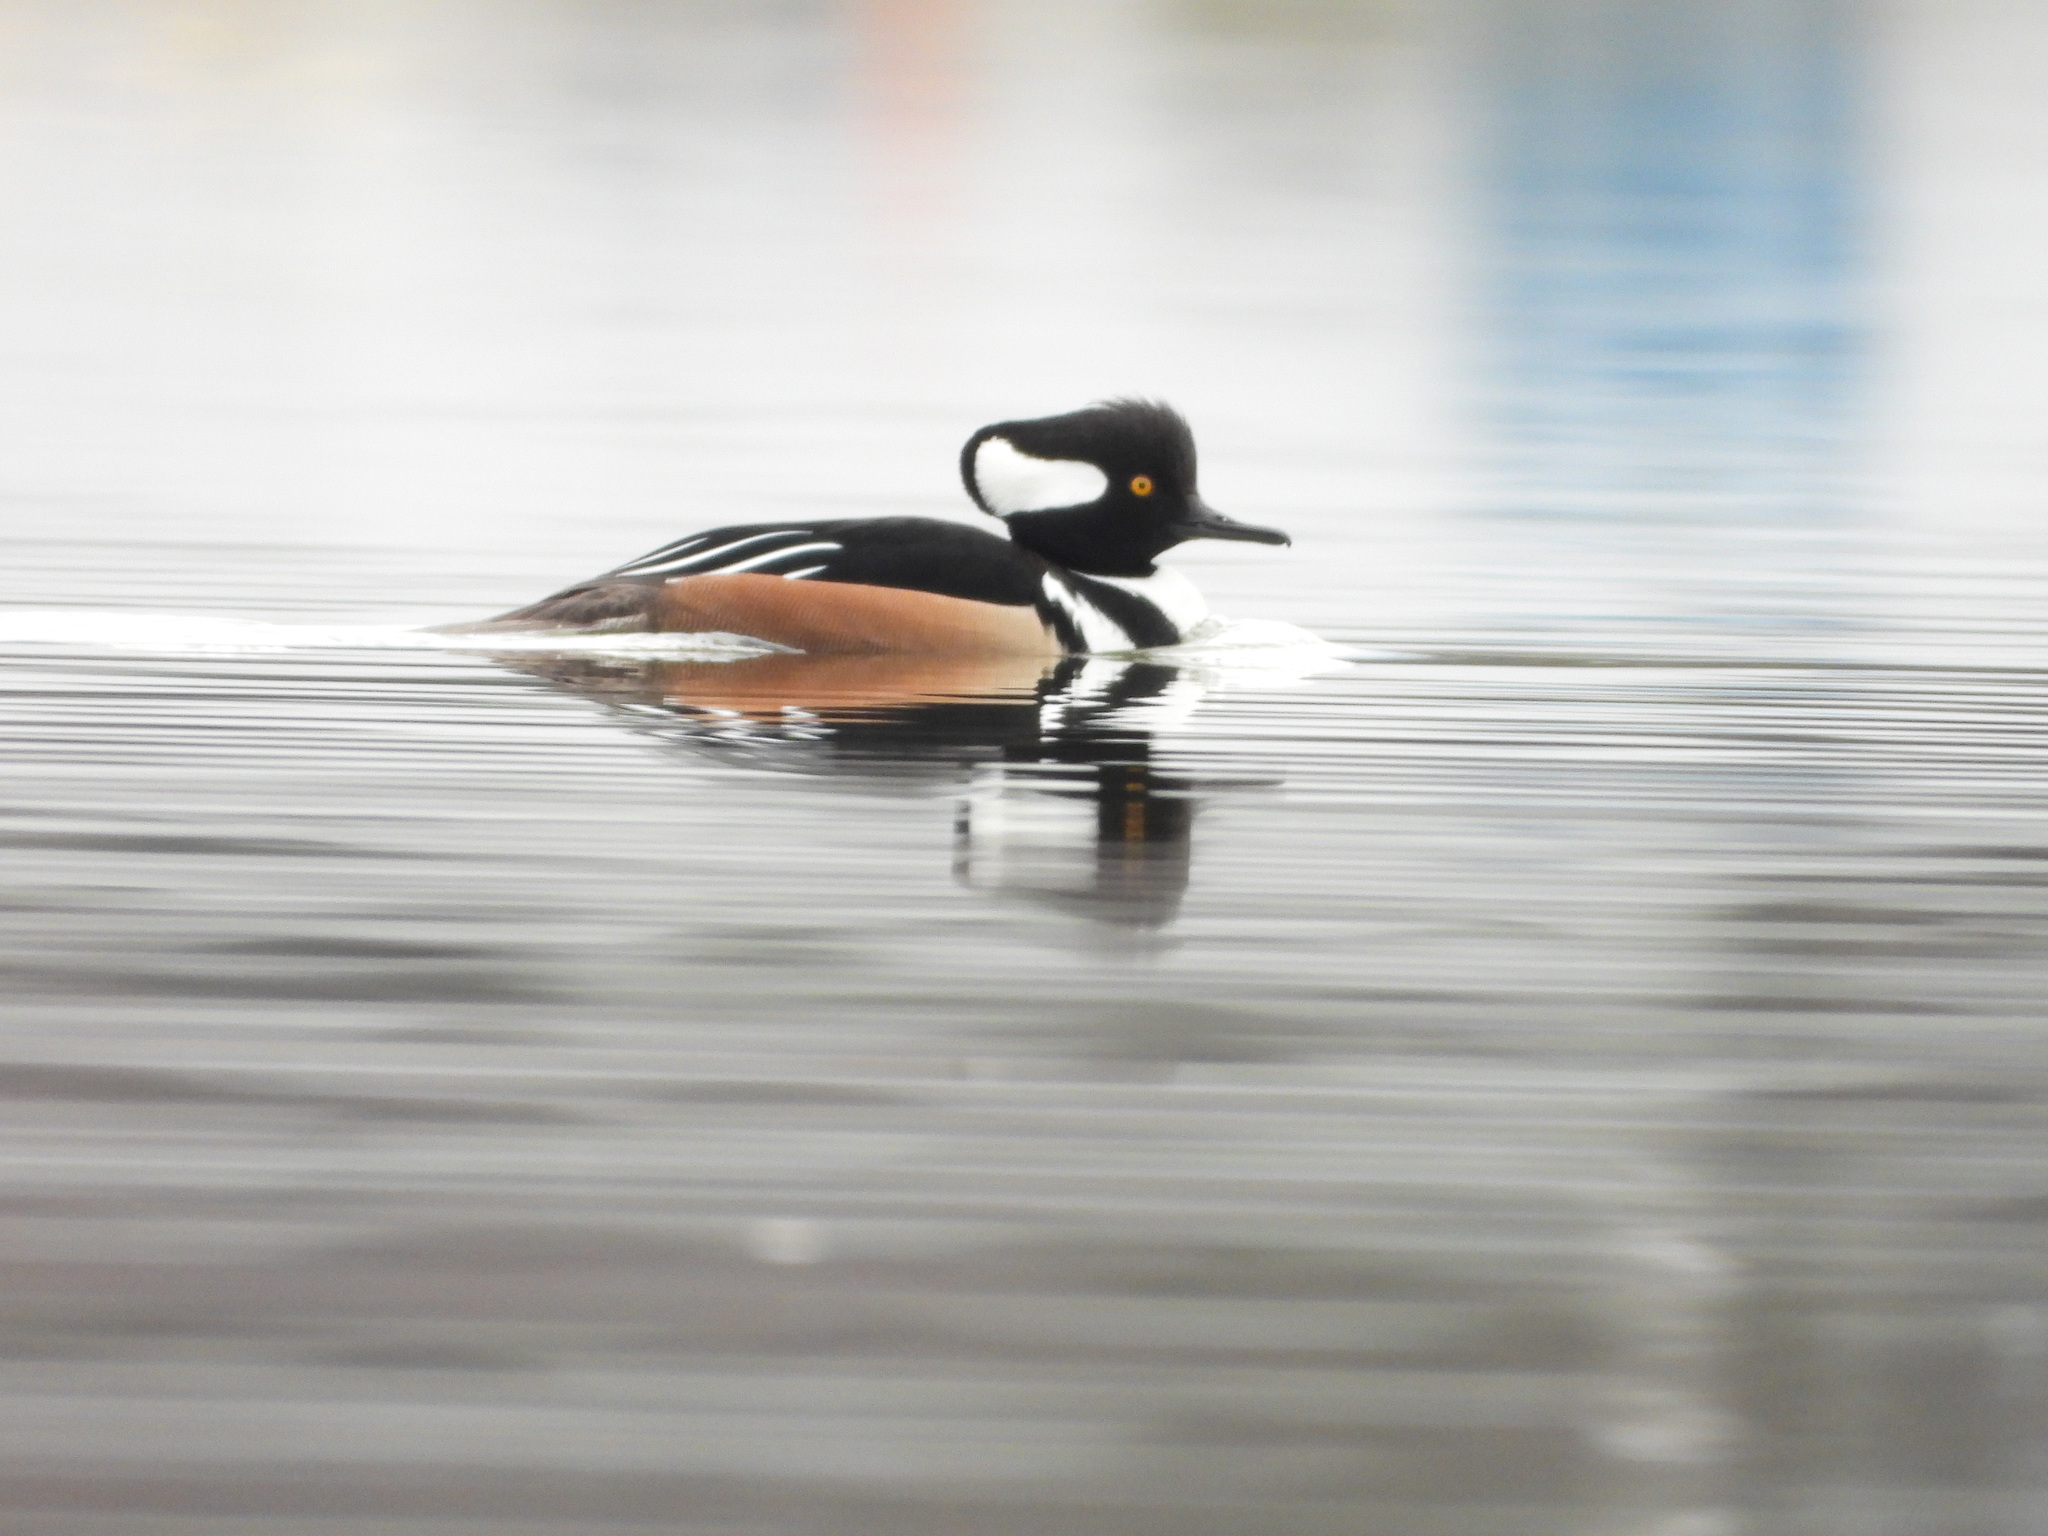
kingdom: Animalia
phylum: Chordata
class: Aves
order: Anseriformes
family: Anatidae
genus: Lophodytes
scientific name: Lophodytes cucullatus
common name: Hooded merganser
